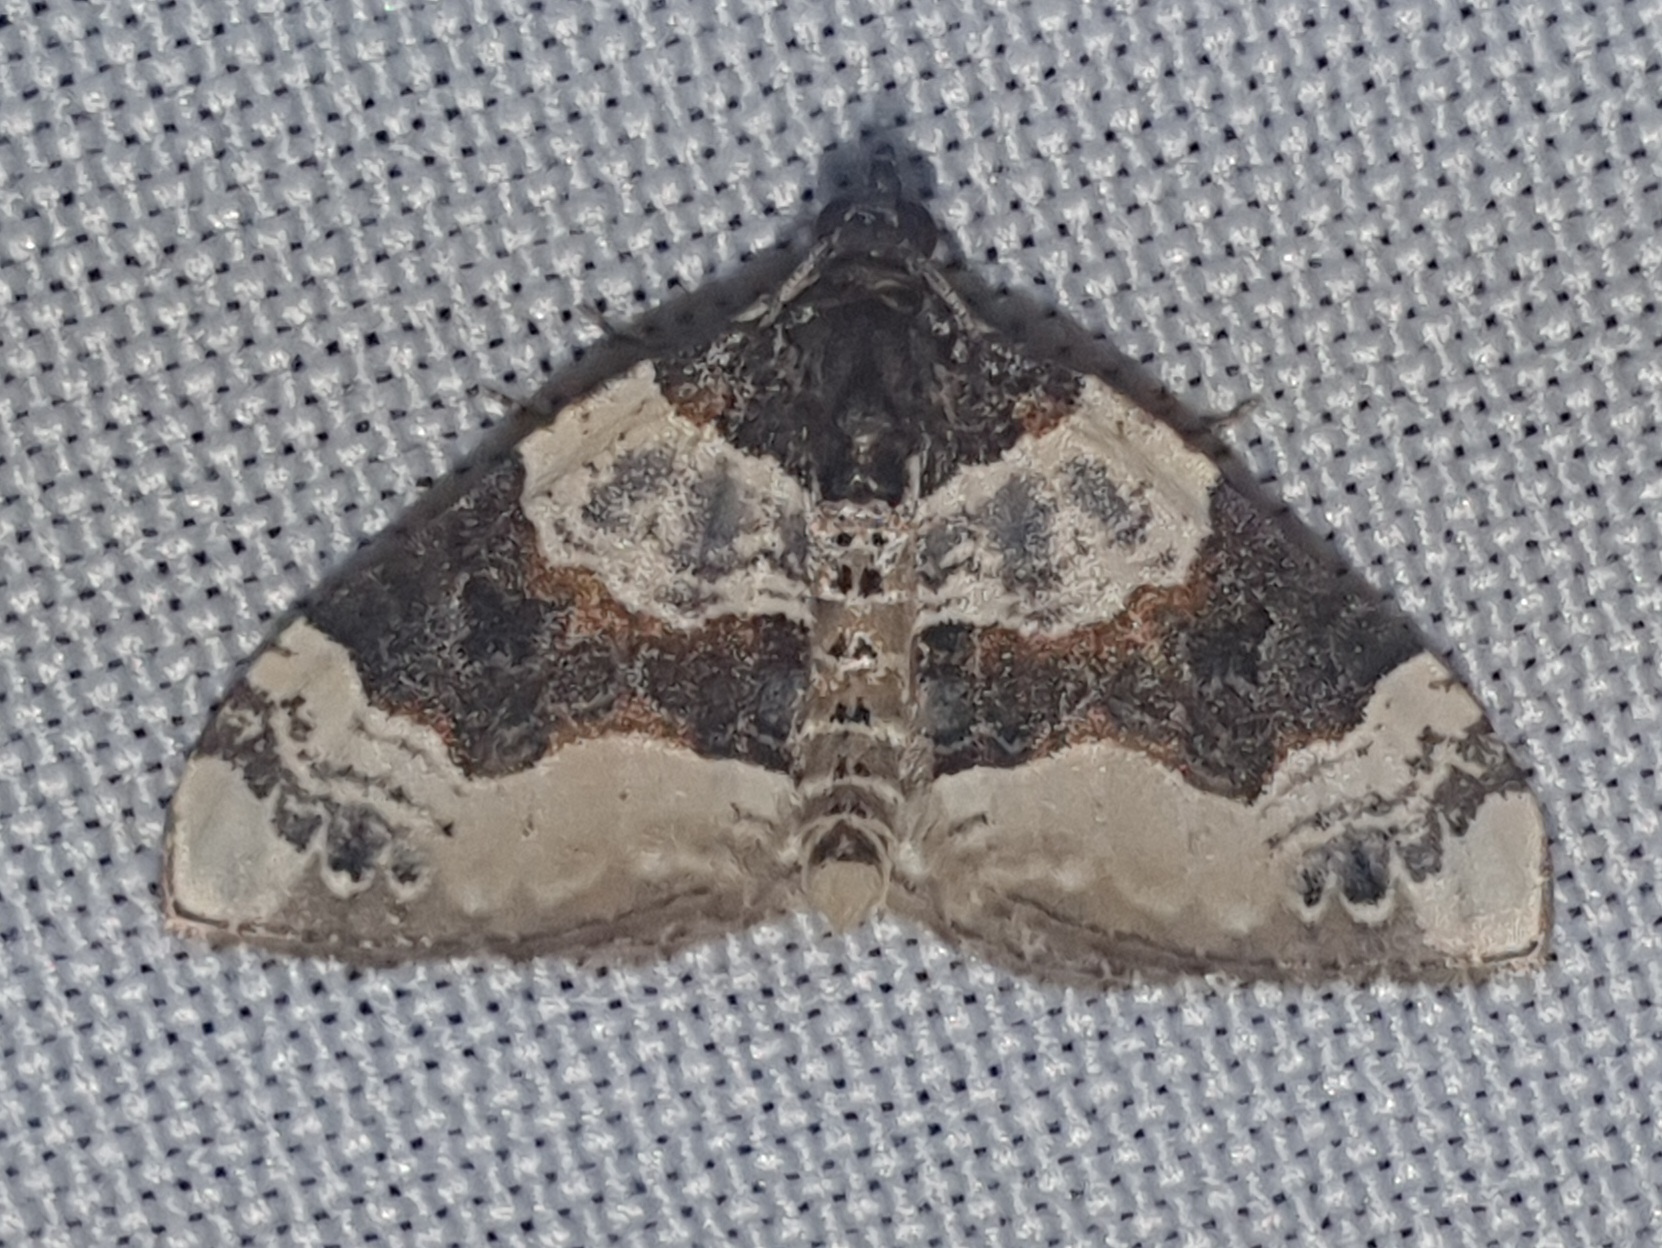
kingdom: Animalia
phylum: Arthropoda
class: Insecta
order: Lepidoptera
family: Geometridae
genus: Cosmorhoe
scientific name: Cosmorhoe ocellata
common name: Purple bar
